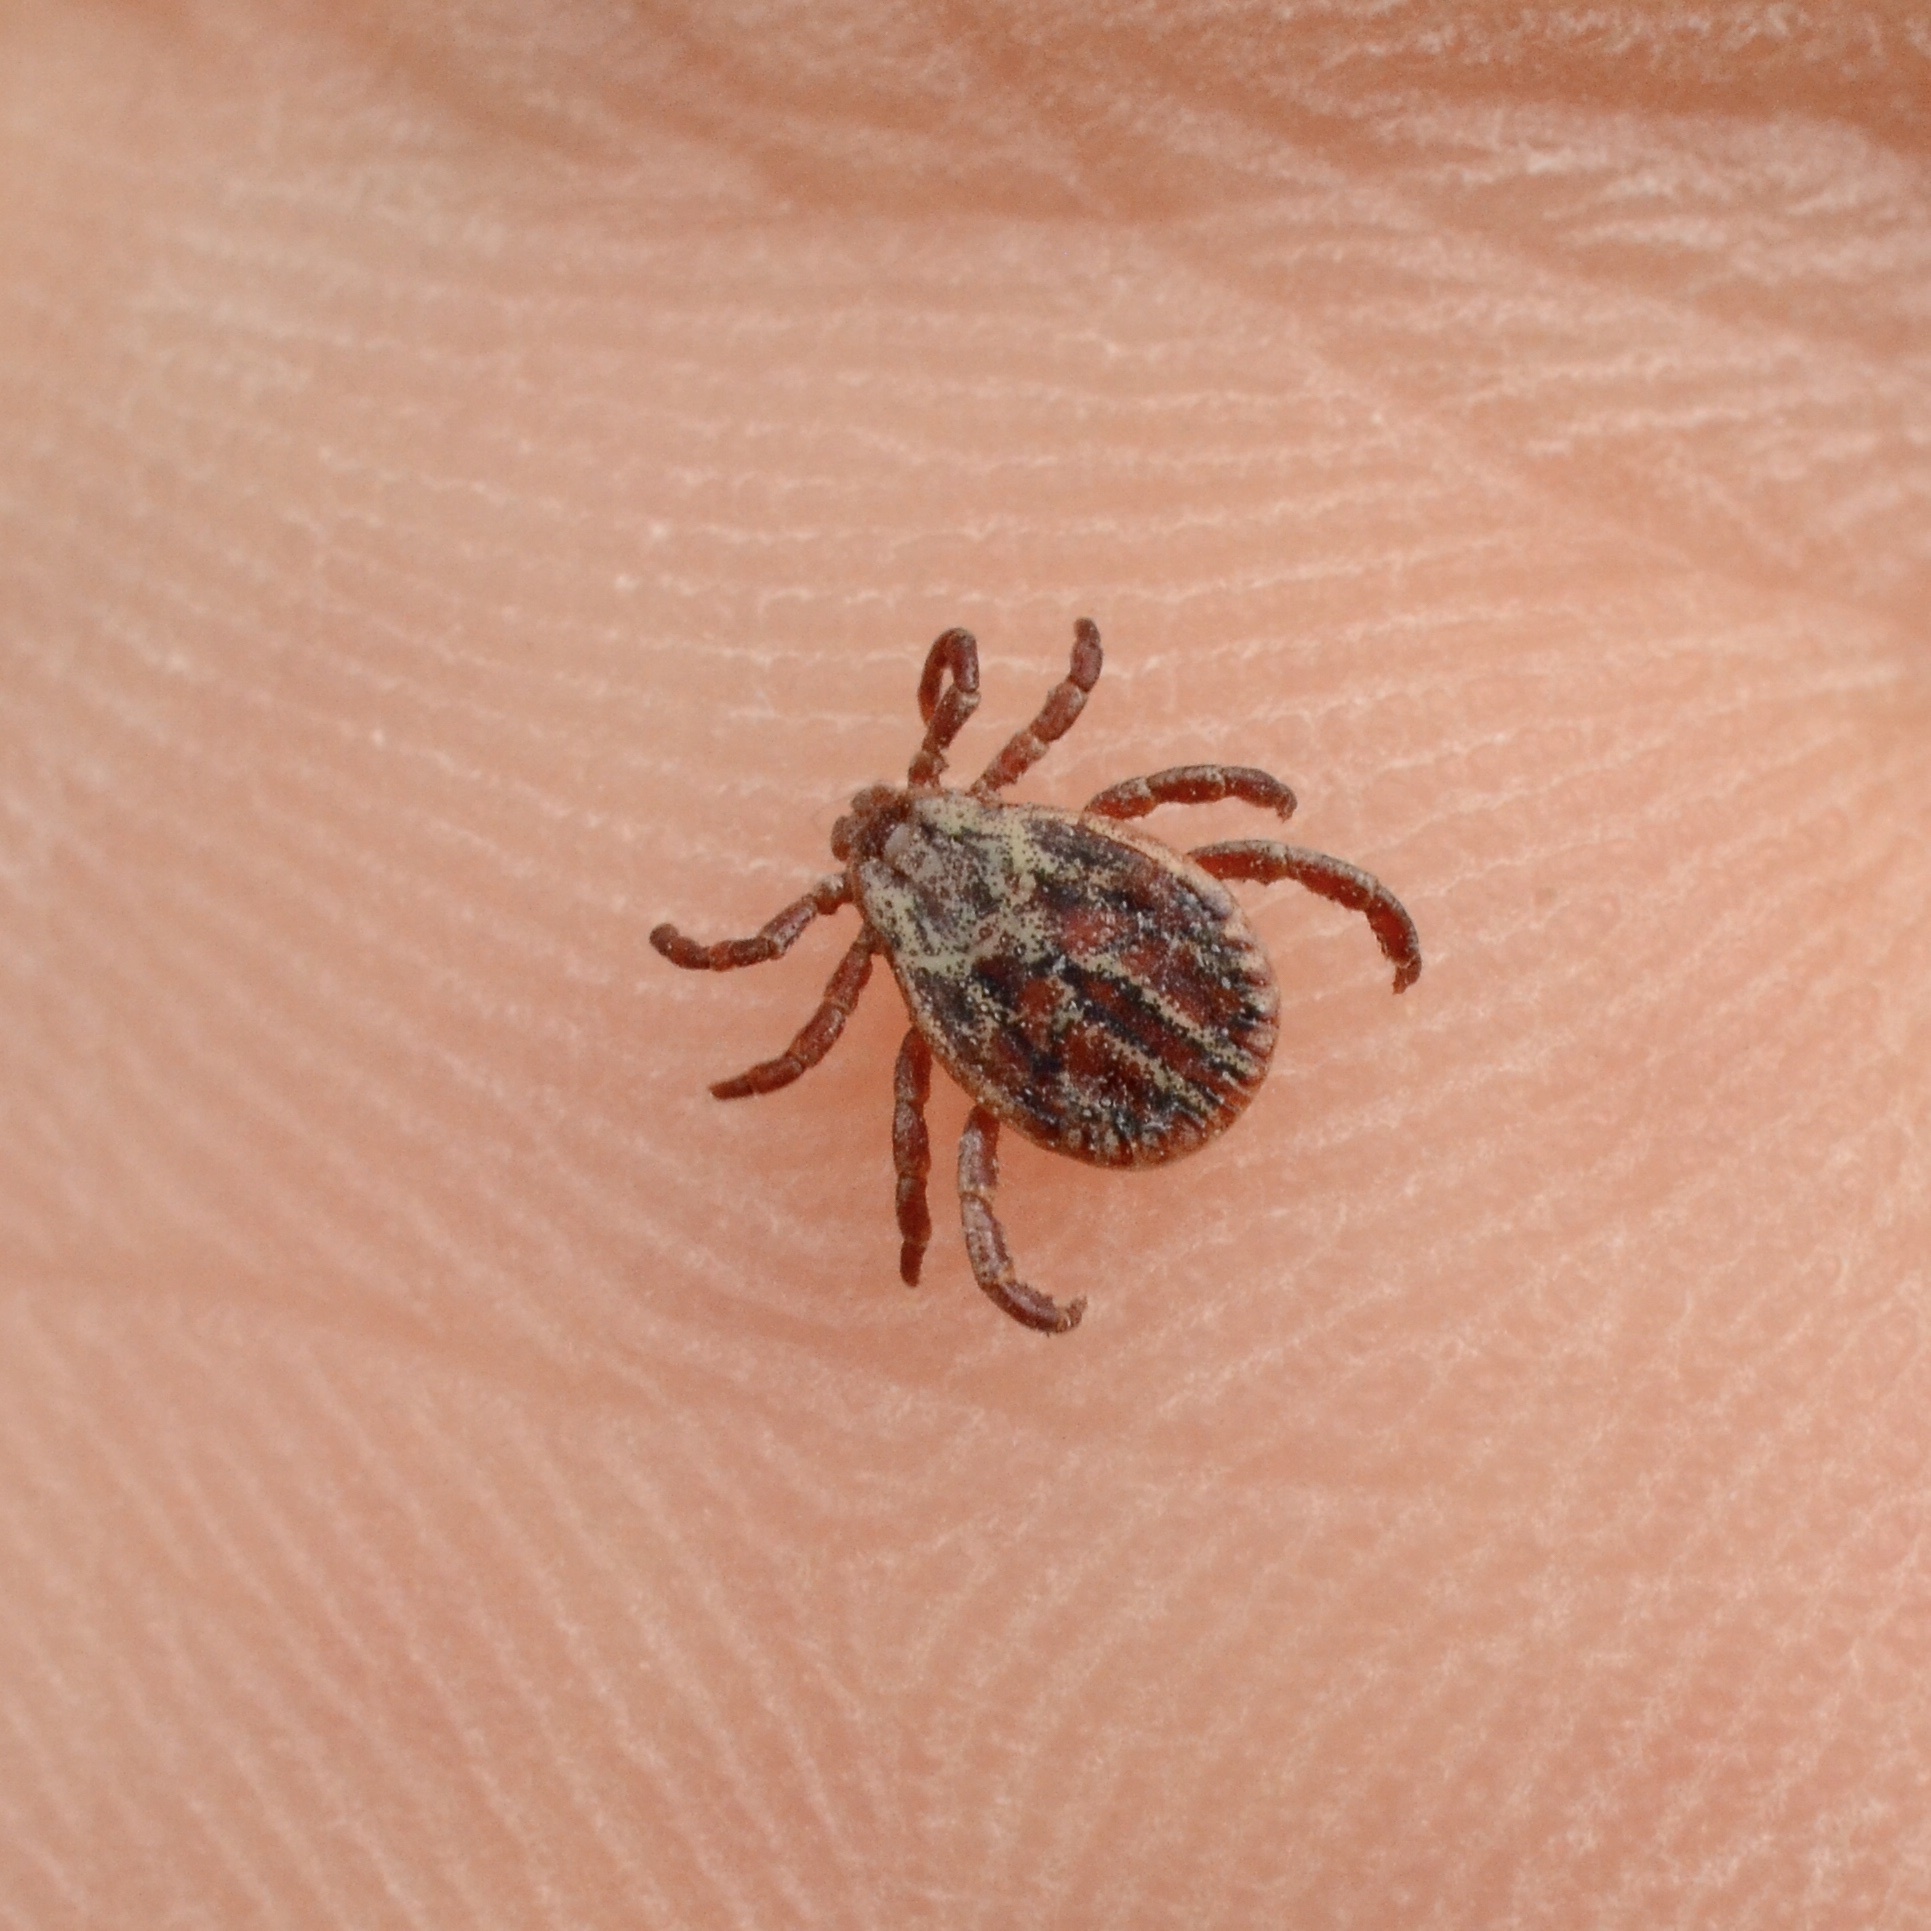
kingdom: Animalia
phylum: Arthropoda
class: Arachnida
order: Ixodida
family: Ixodidae
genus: Dermacentor
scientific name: Dermacentor
